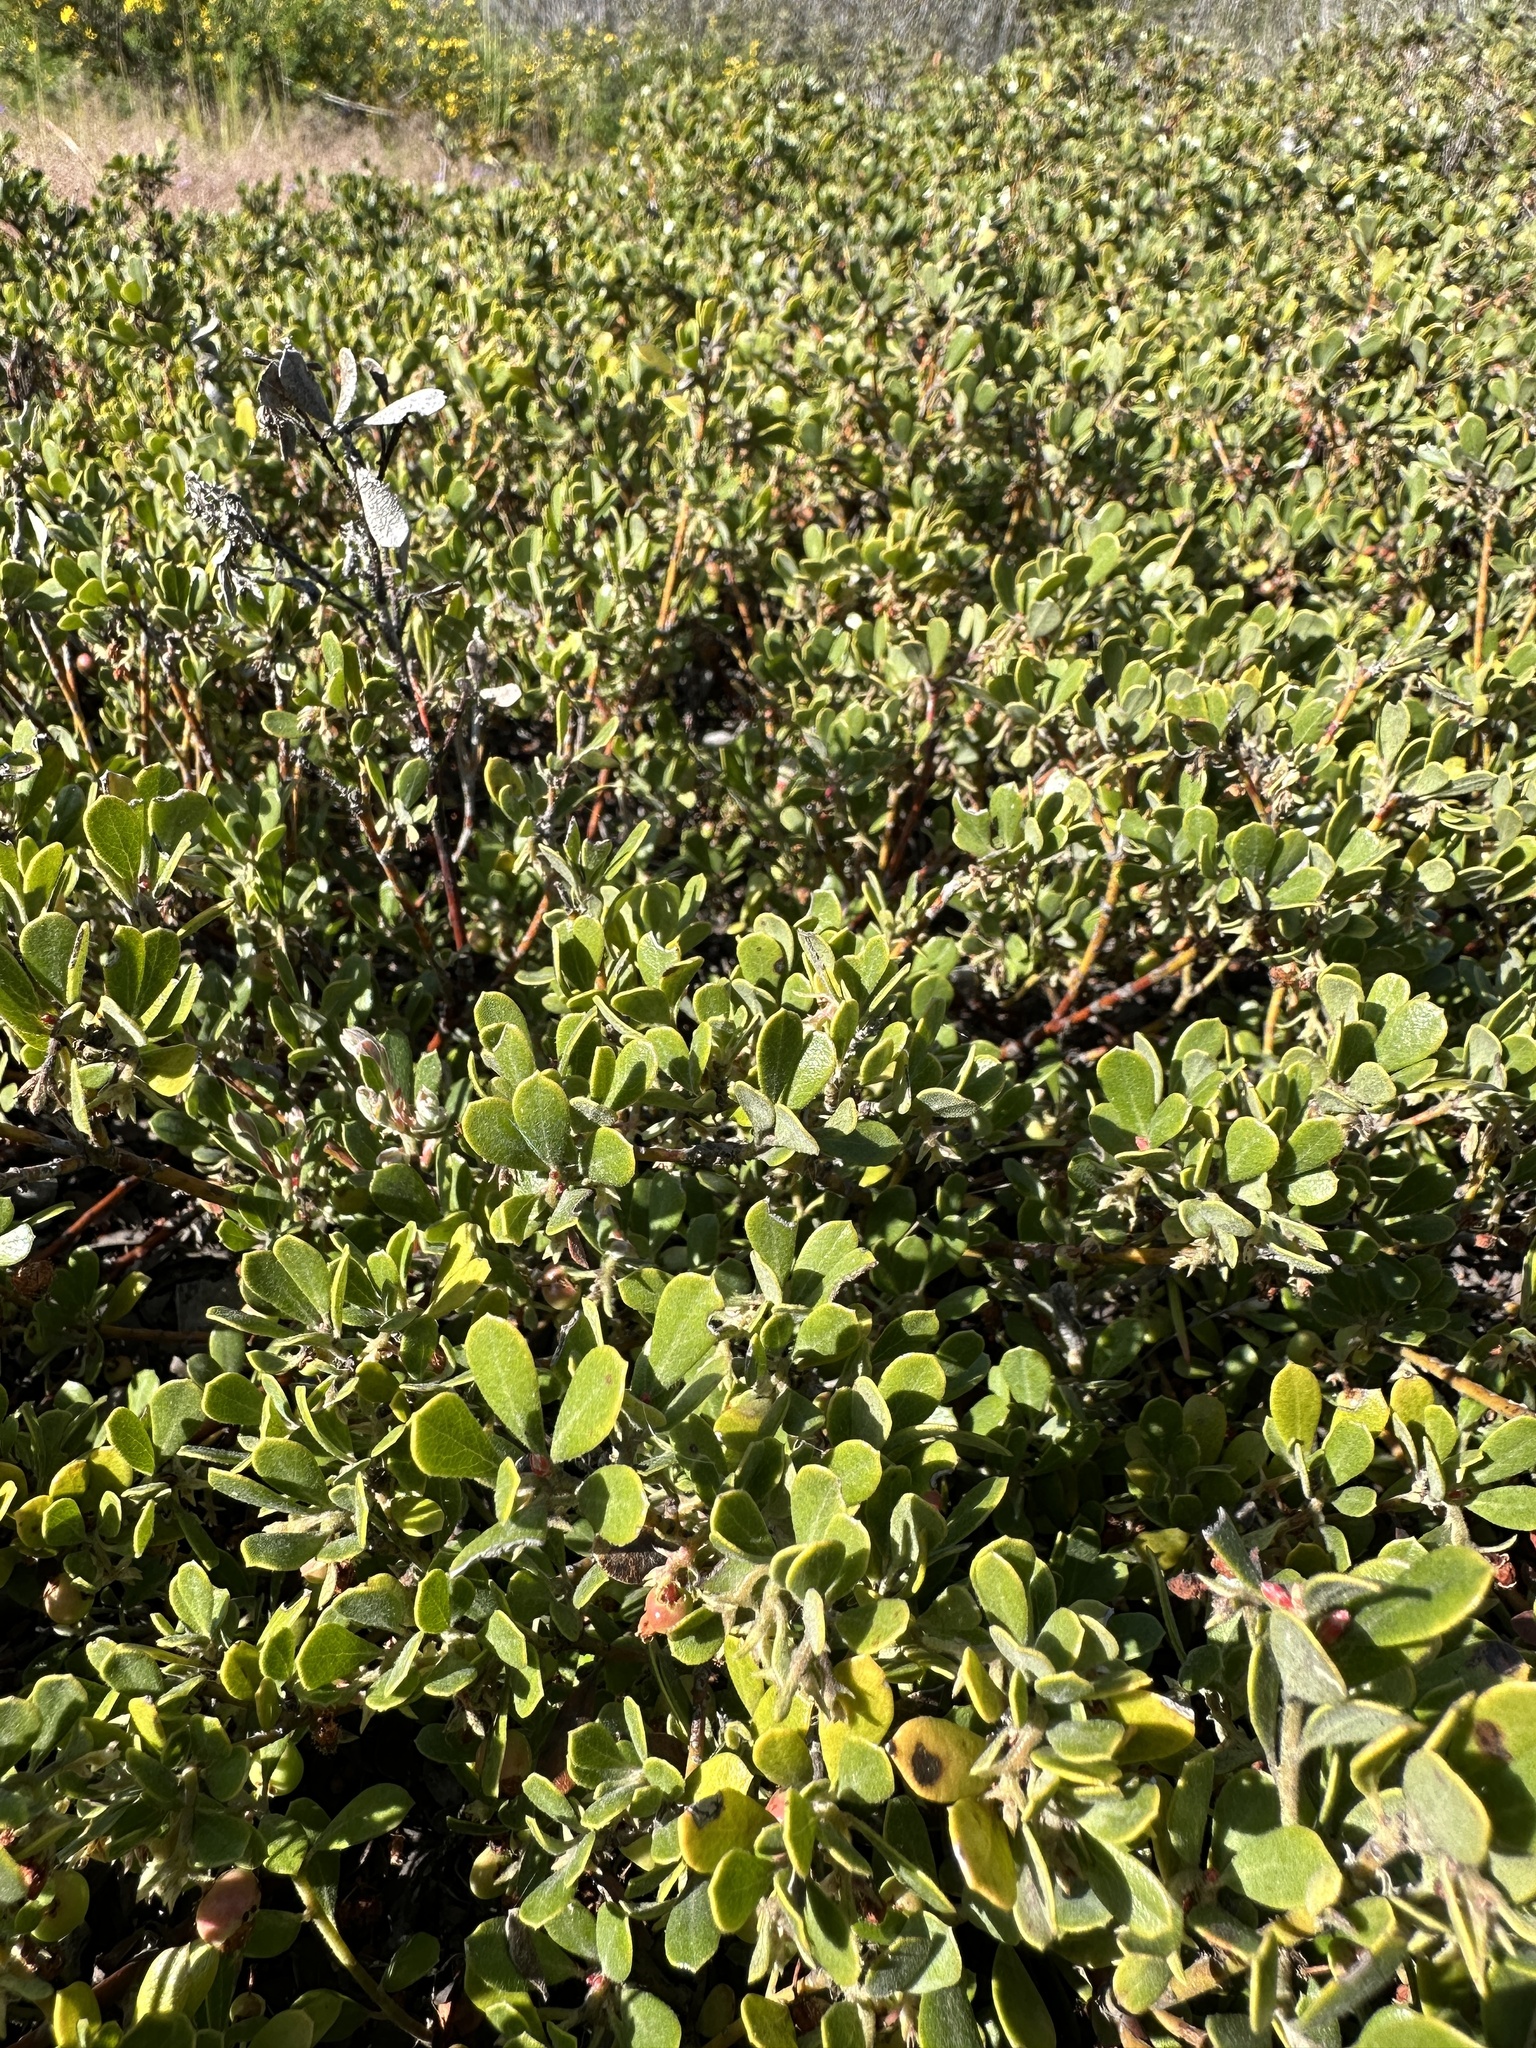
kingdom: Plantae
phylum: Tracheophyta
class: Magnoliopsida
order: Ericales
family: Ericaceae
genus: Arctostaphylos
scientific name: Arctostaphylos pumila
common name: Sandmat manzanita
